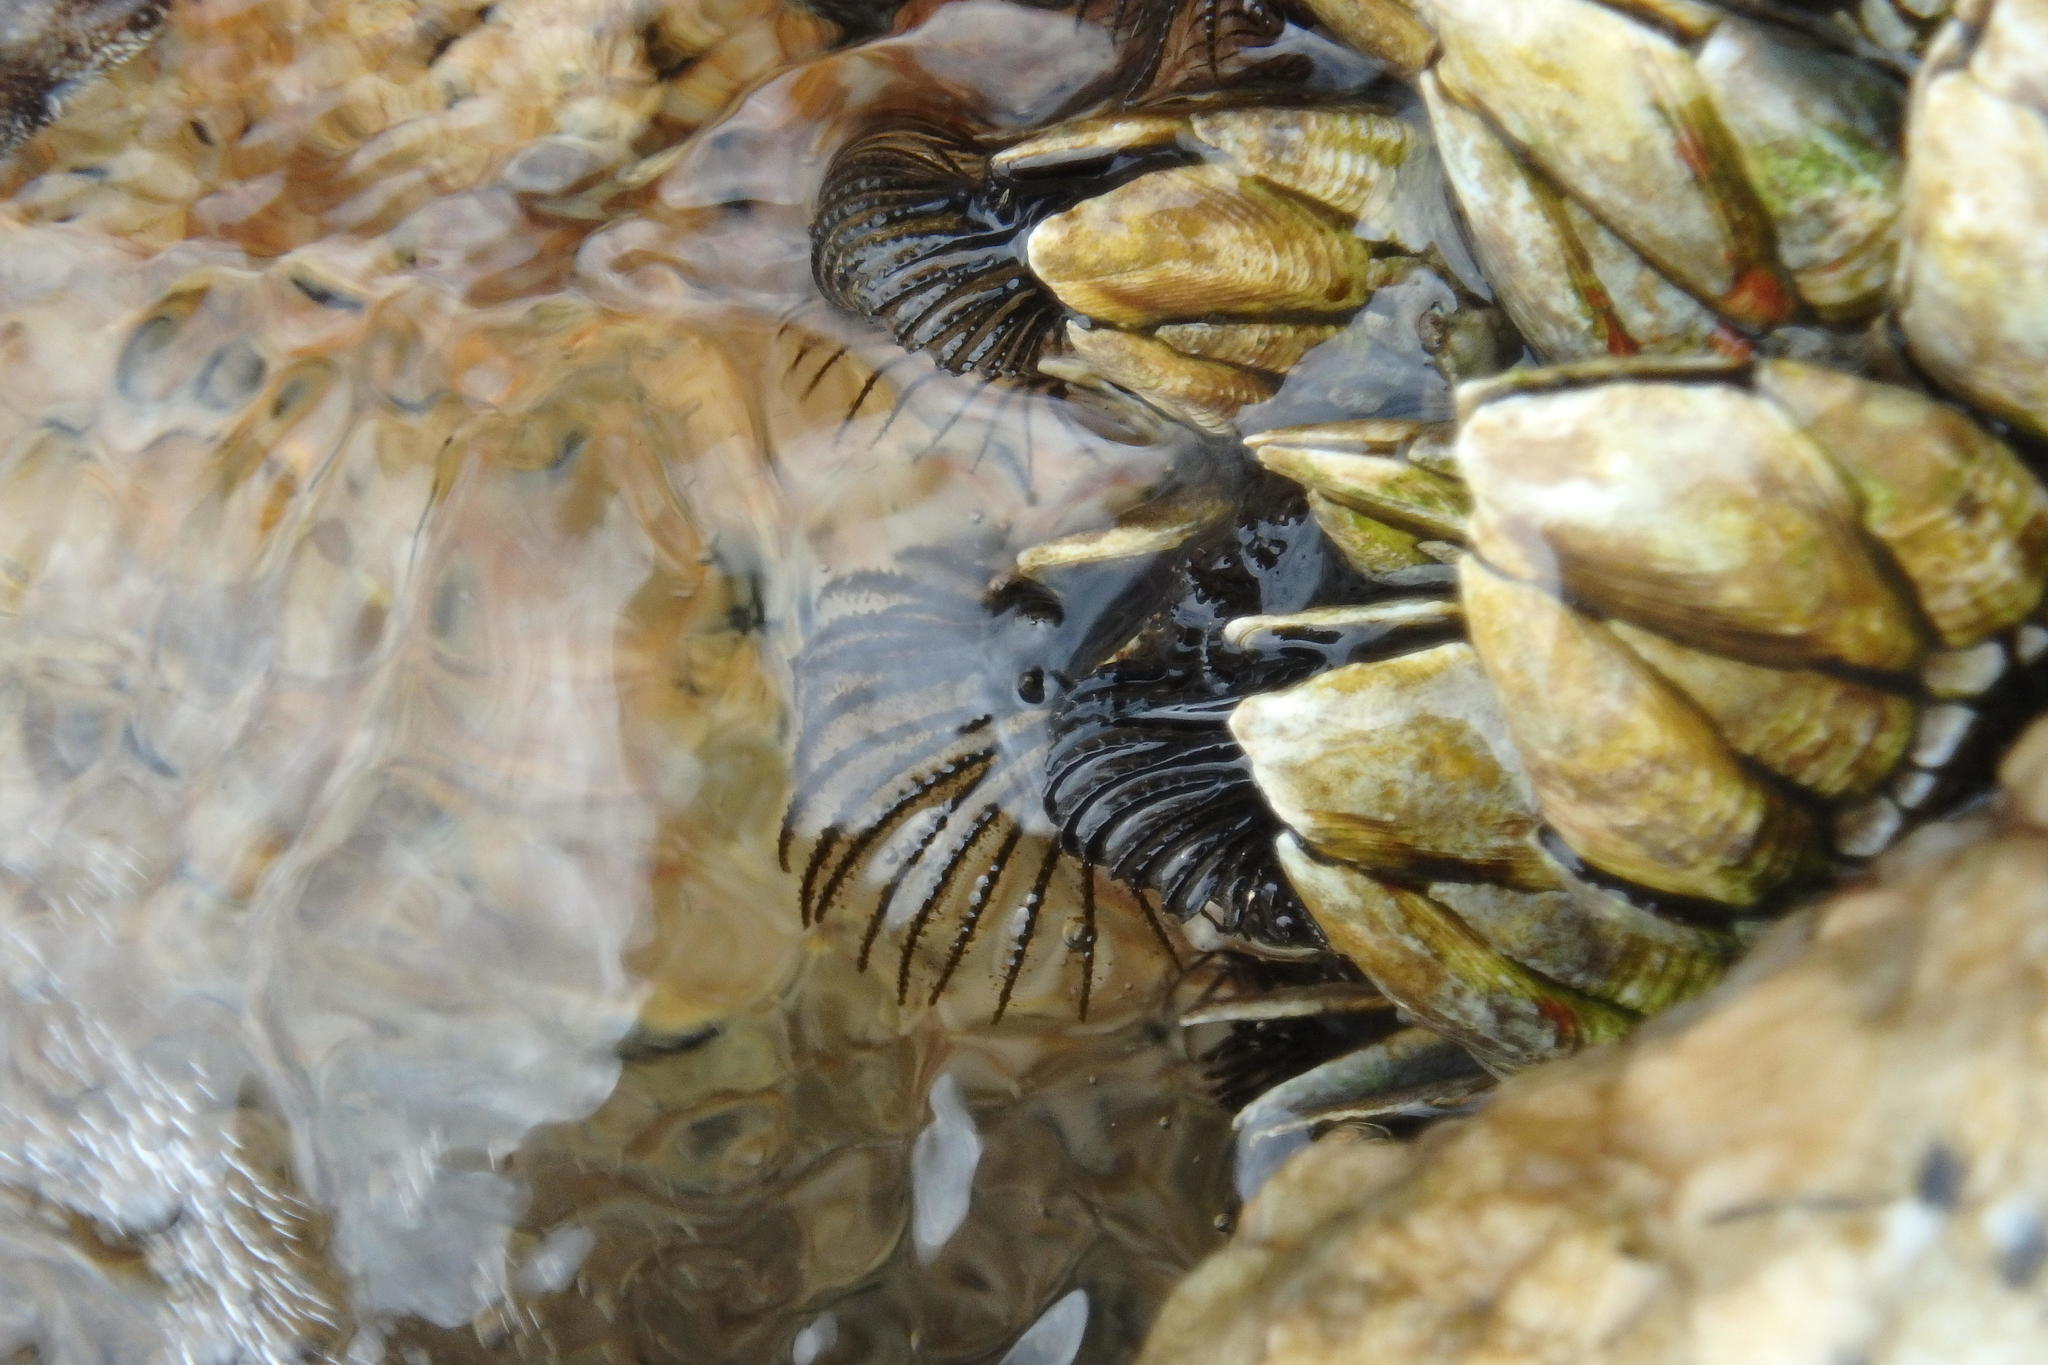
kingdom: Animalia
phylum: Arthropoda
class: Maxillopoda
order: Pedunculata
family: Pollicipedidae
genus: Capitulum
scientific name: Capitulum mitella
